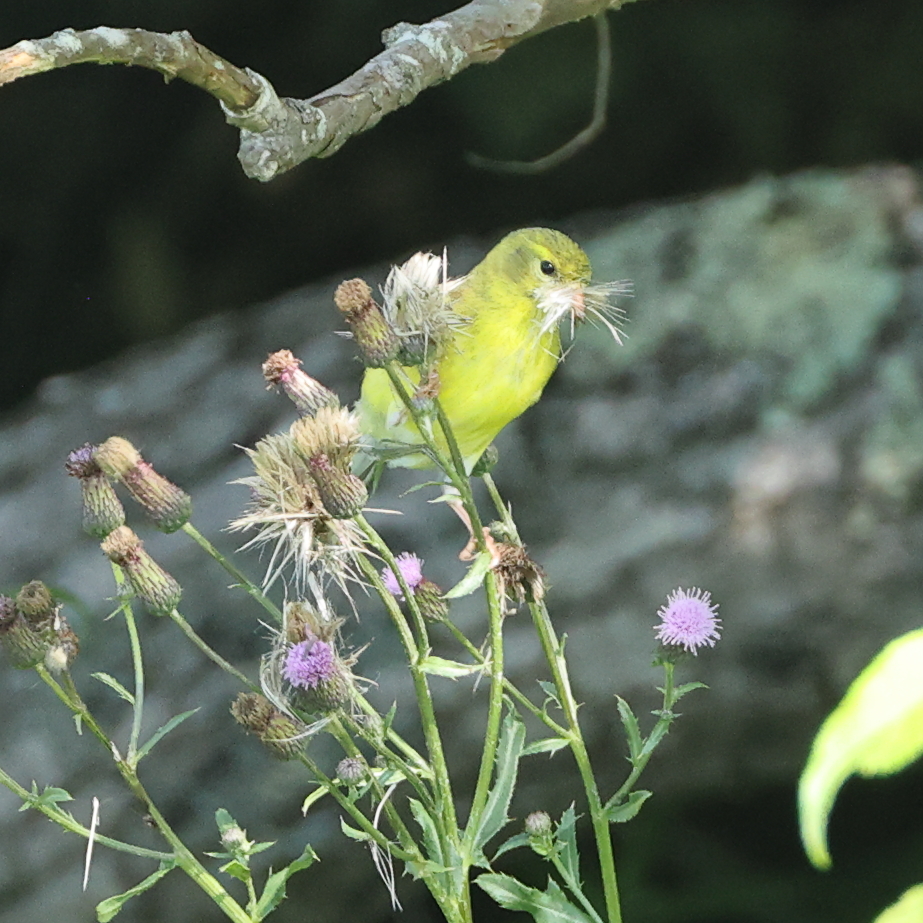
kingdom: Animalia
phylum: Chordata
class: Aves
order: Passeriformes
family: Fringillidae
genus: Spinus
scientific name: Spinus tristis
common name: American goldfinch
